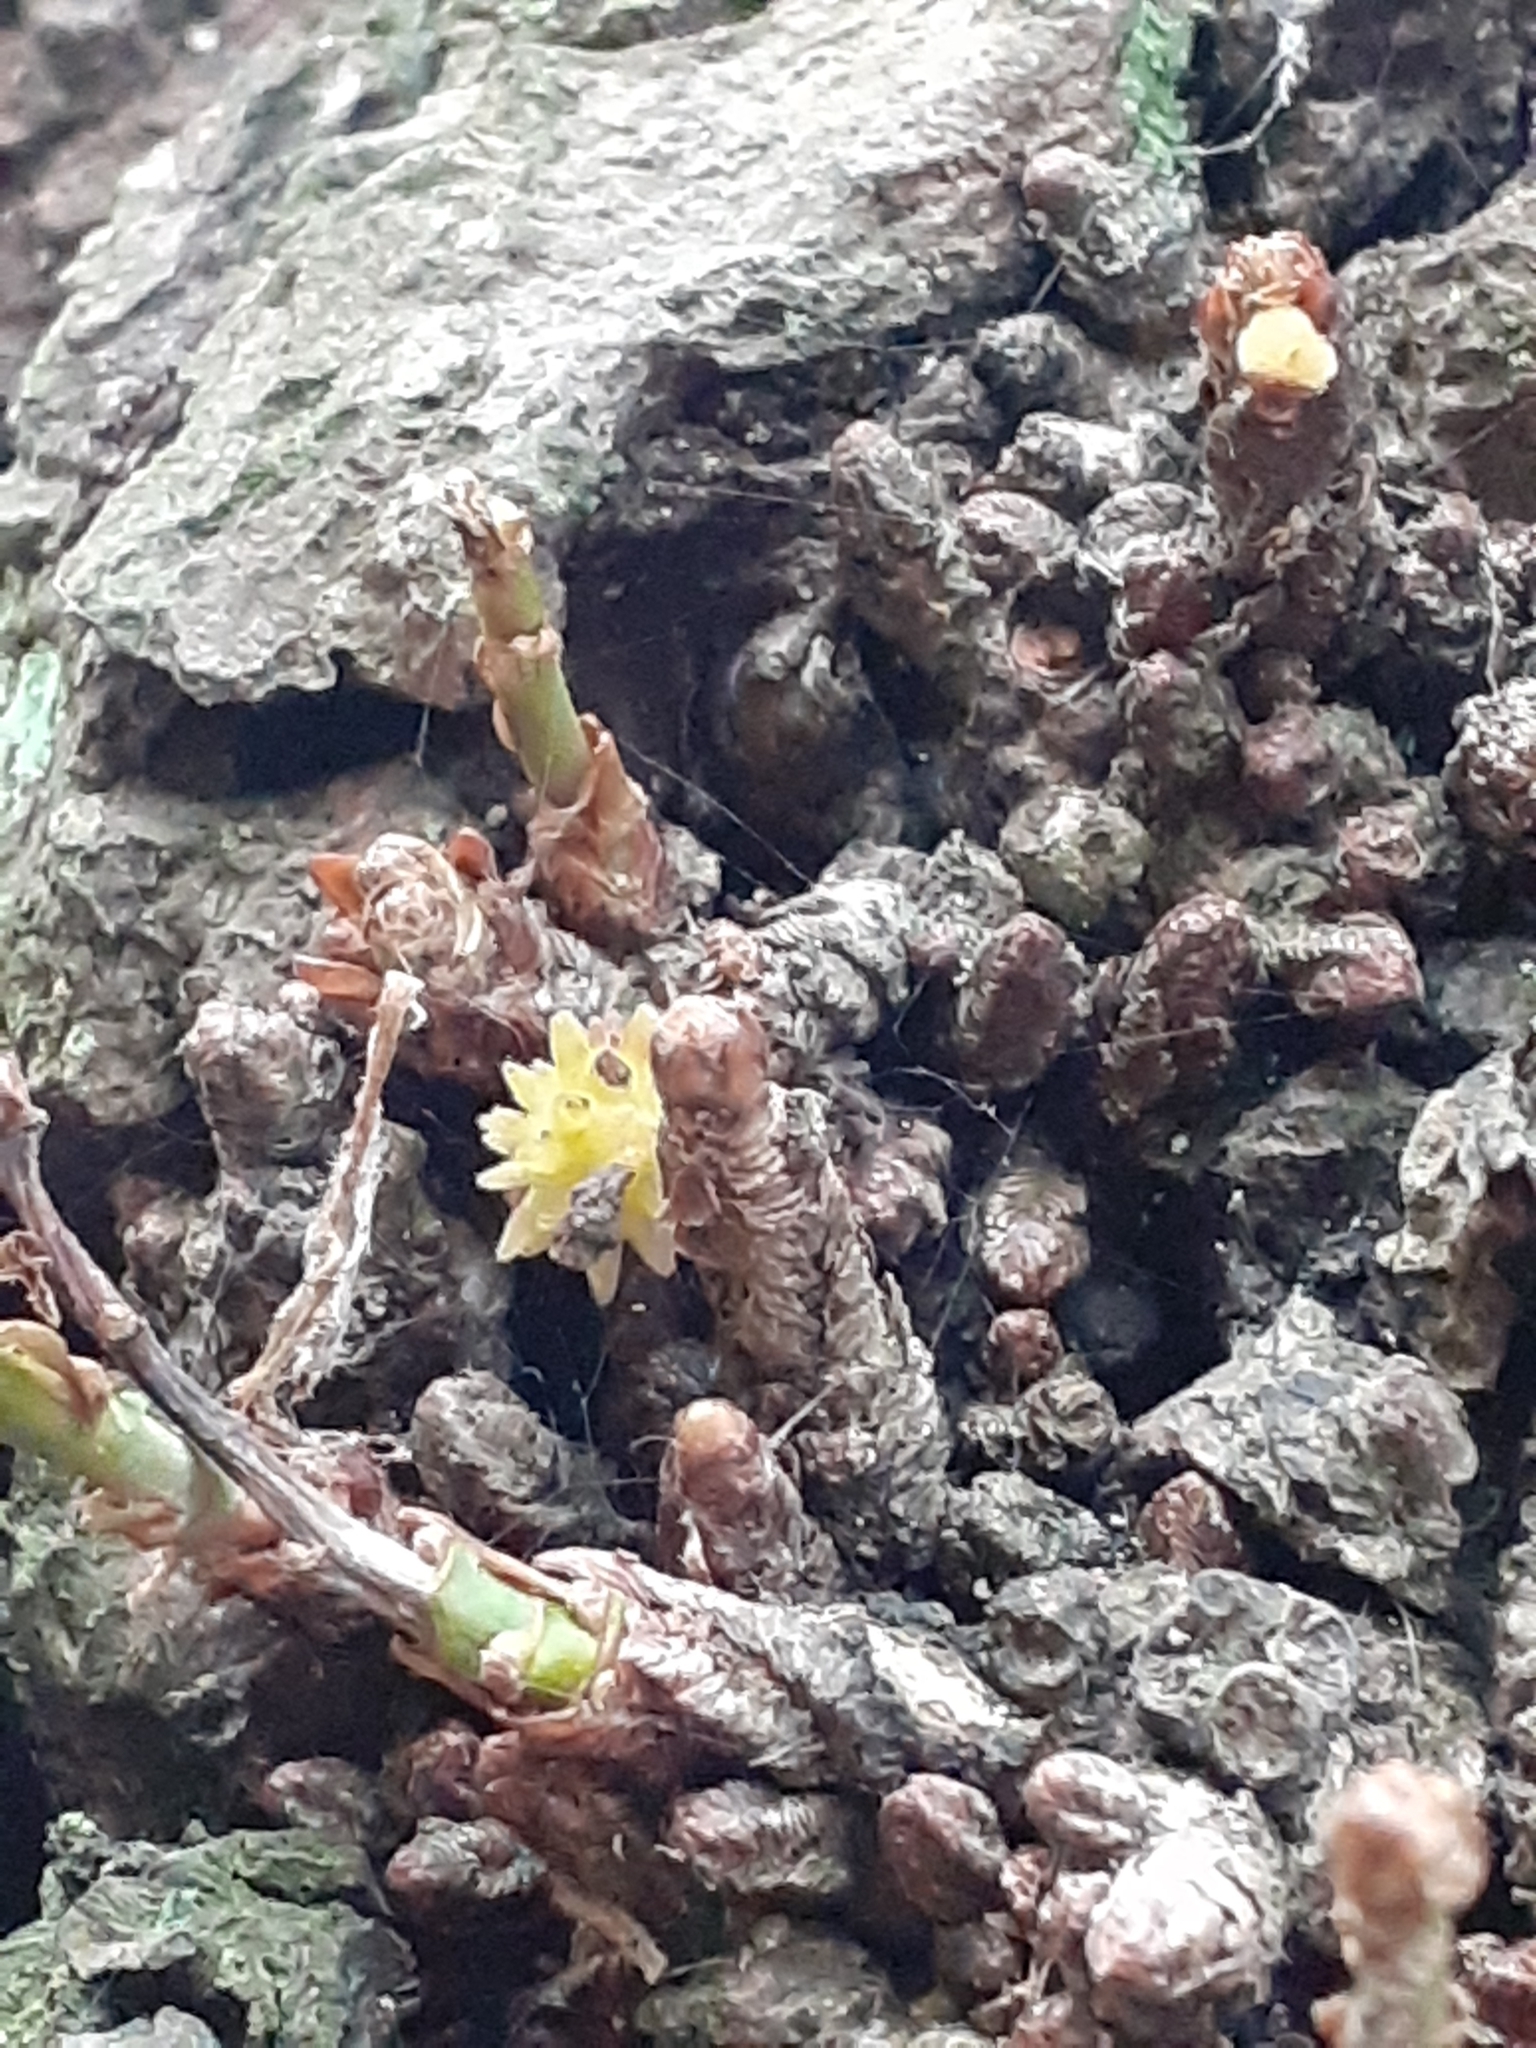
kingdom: Animalia
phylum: Arthropoda
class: Insecta
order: Hymenoptera
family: Cynipidae
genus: Andricus
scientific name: Andricus gemmeus
